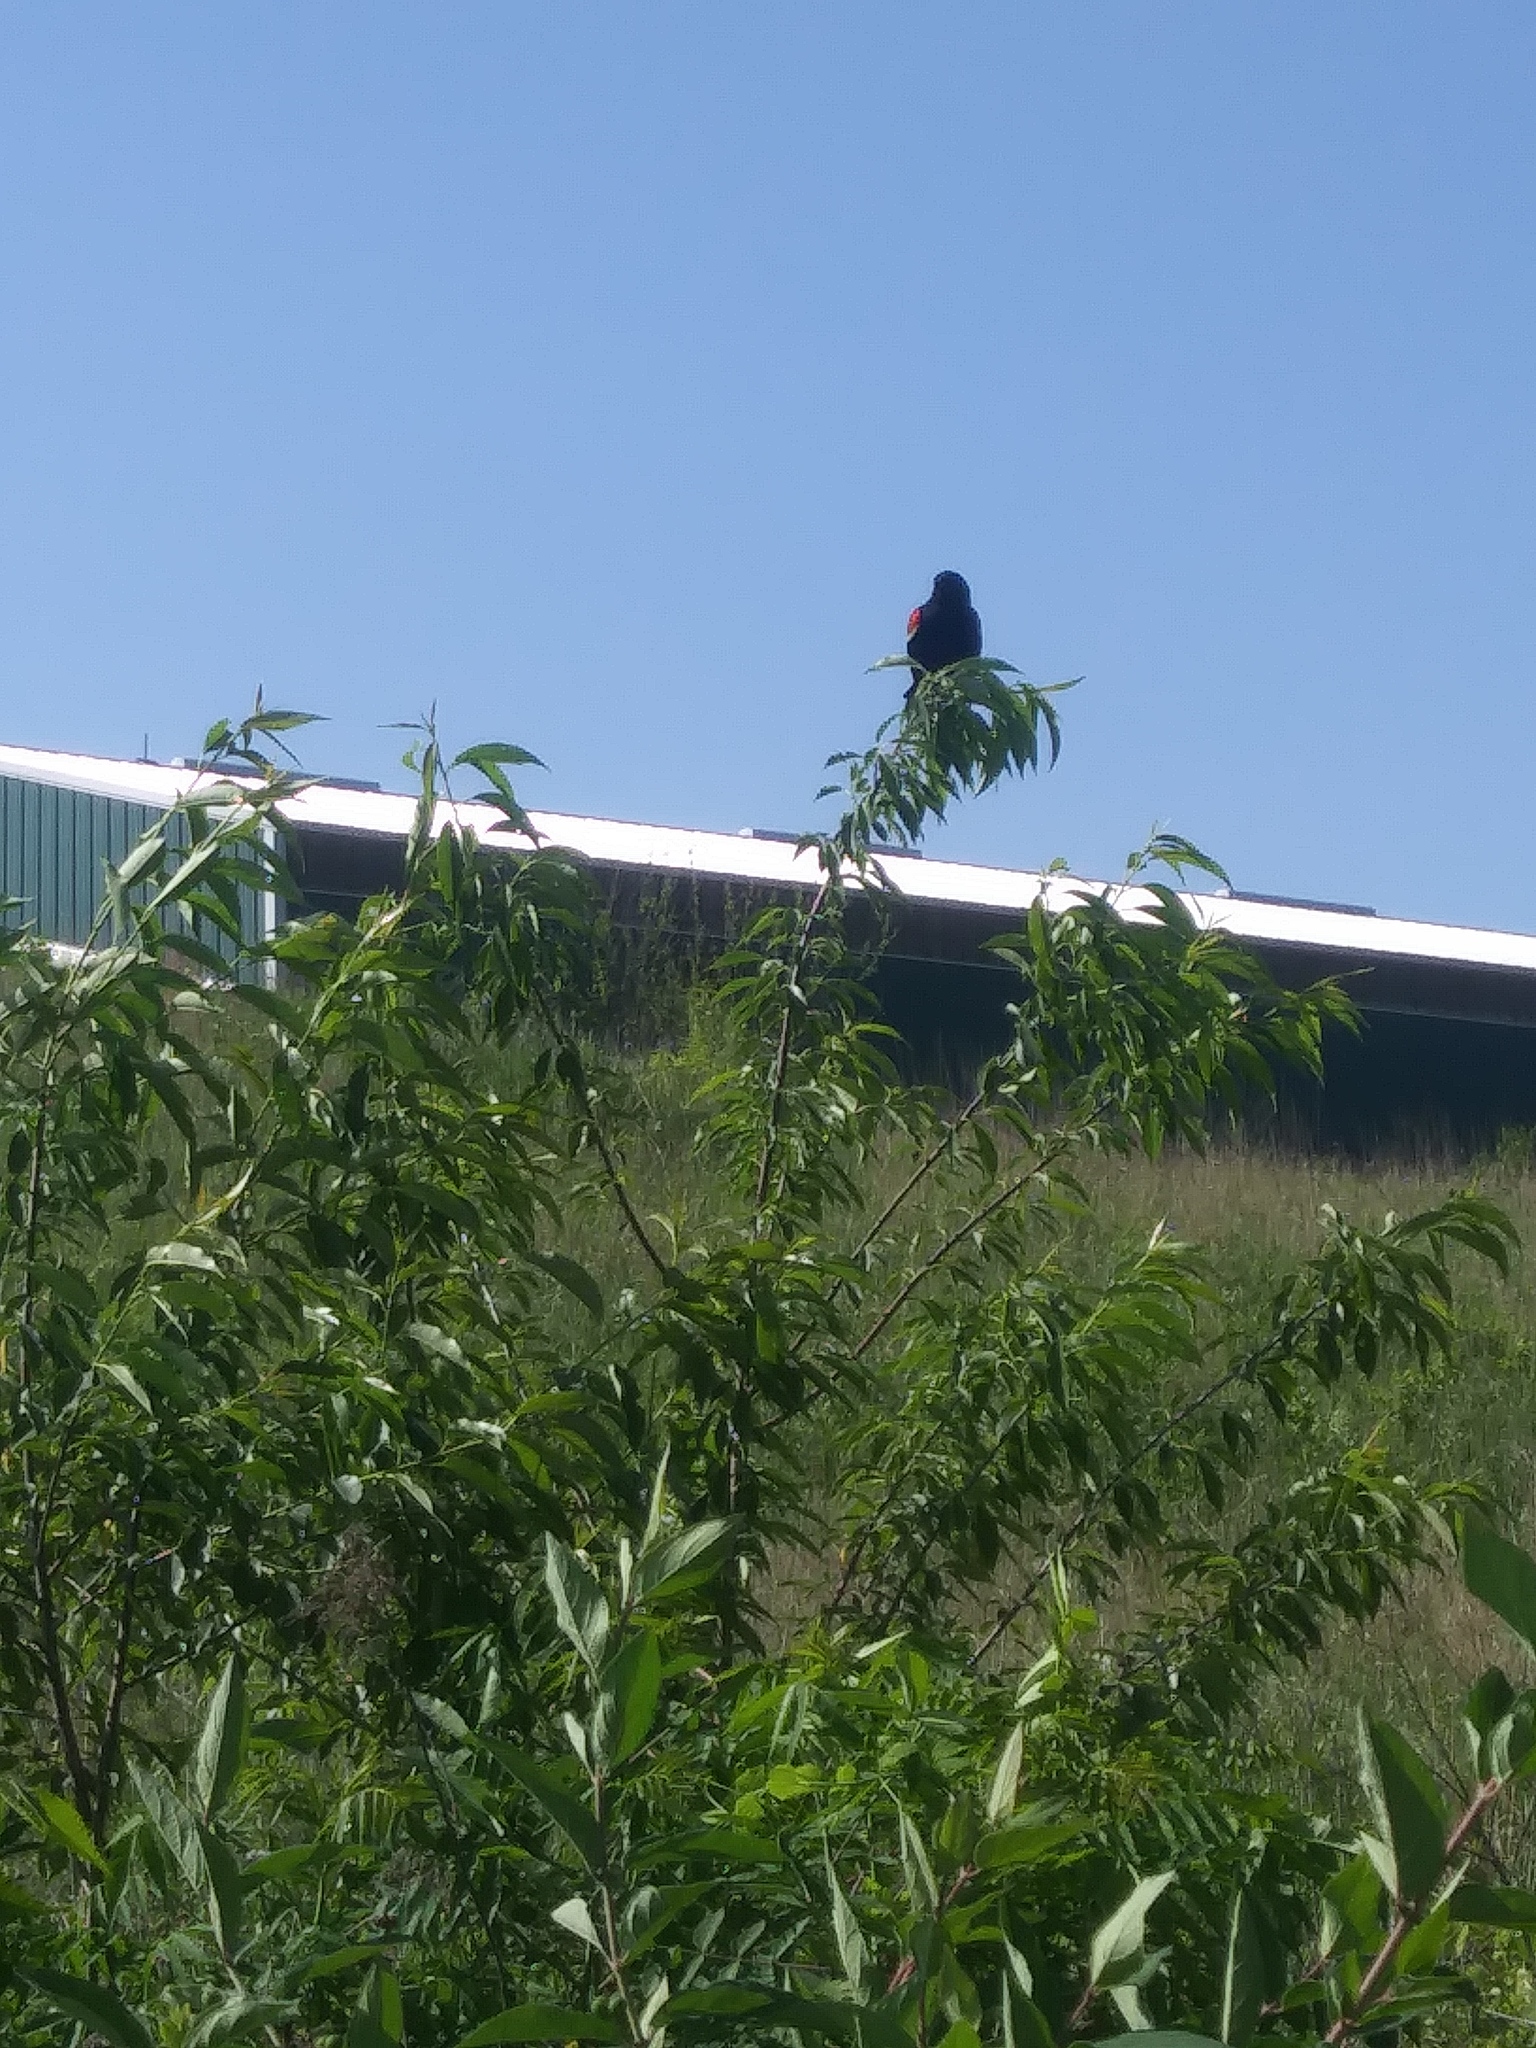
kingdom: Animalia
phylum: Chordata
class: Aves
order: Passeriformes
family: Icteridae
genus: Agelaius
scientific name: Agelaius phoeniceus
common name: Red-winged blackbird
